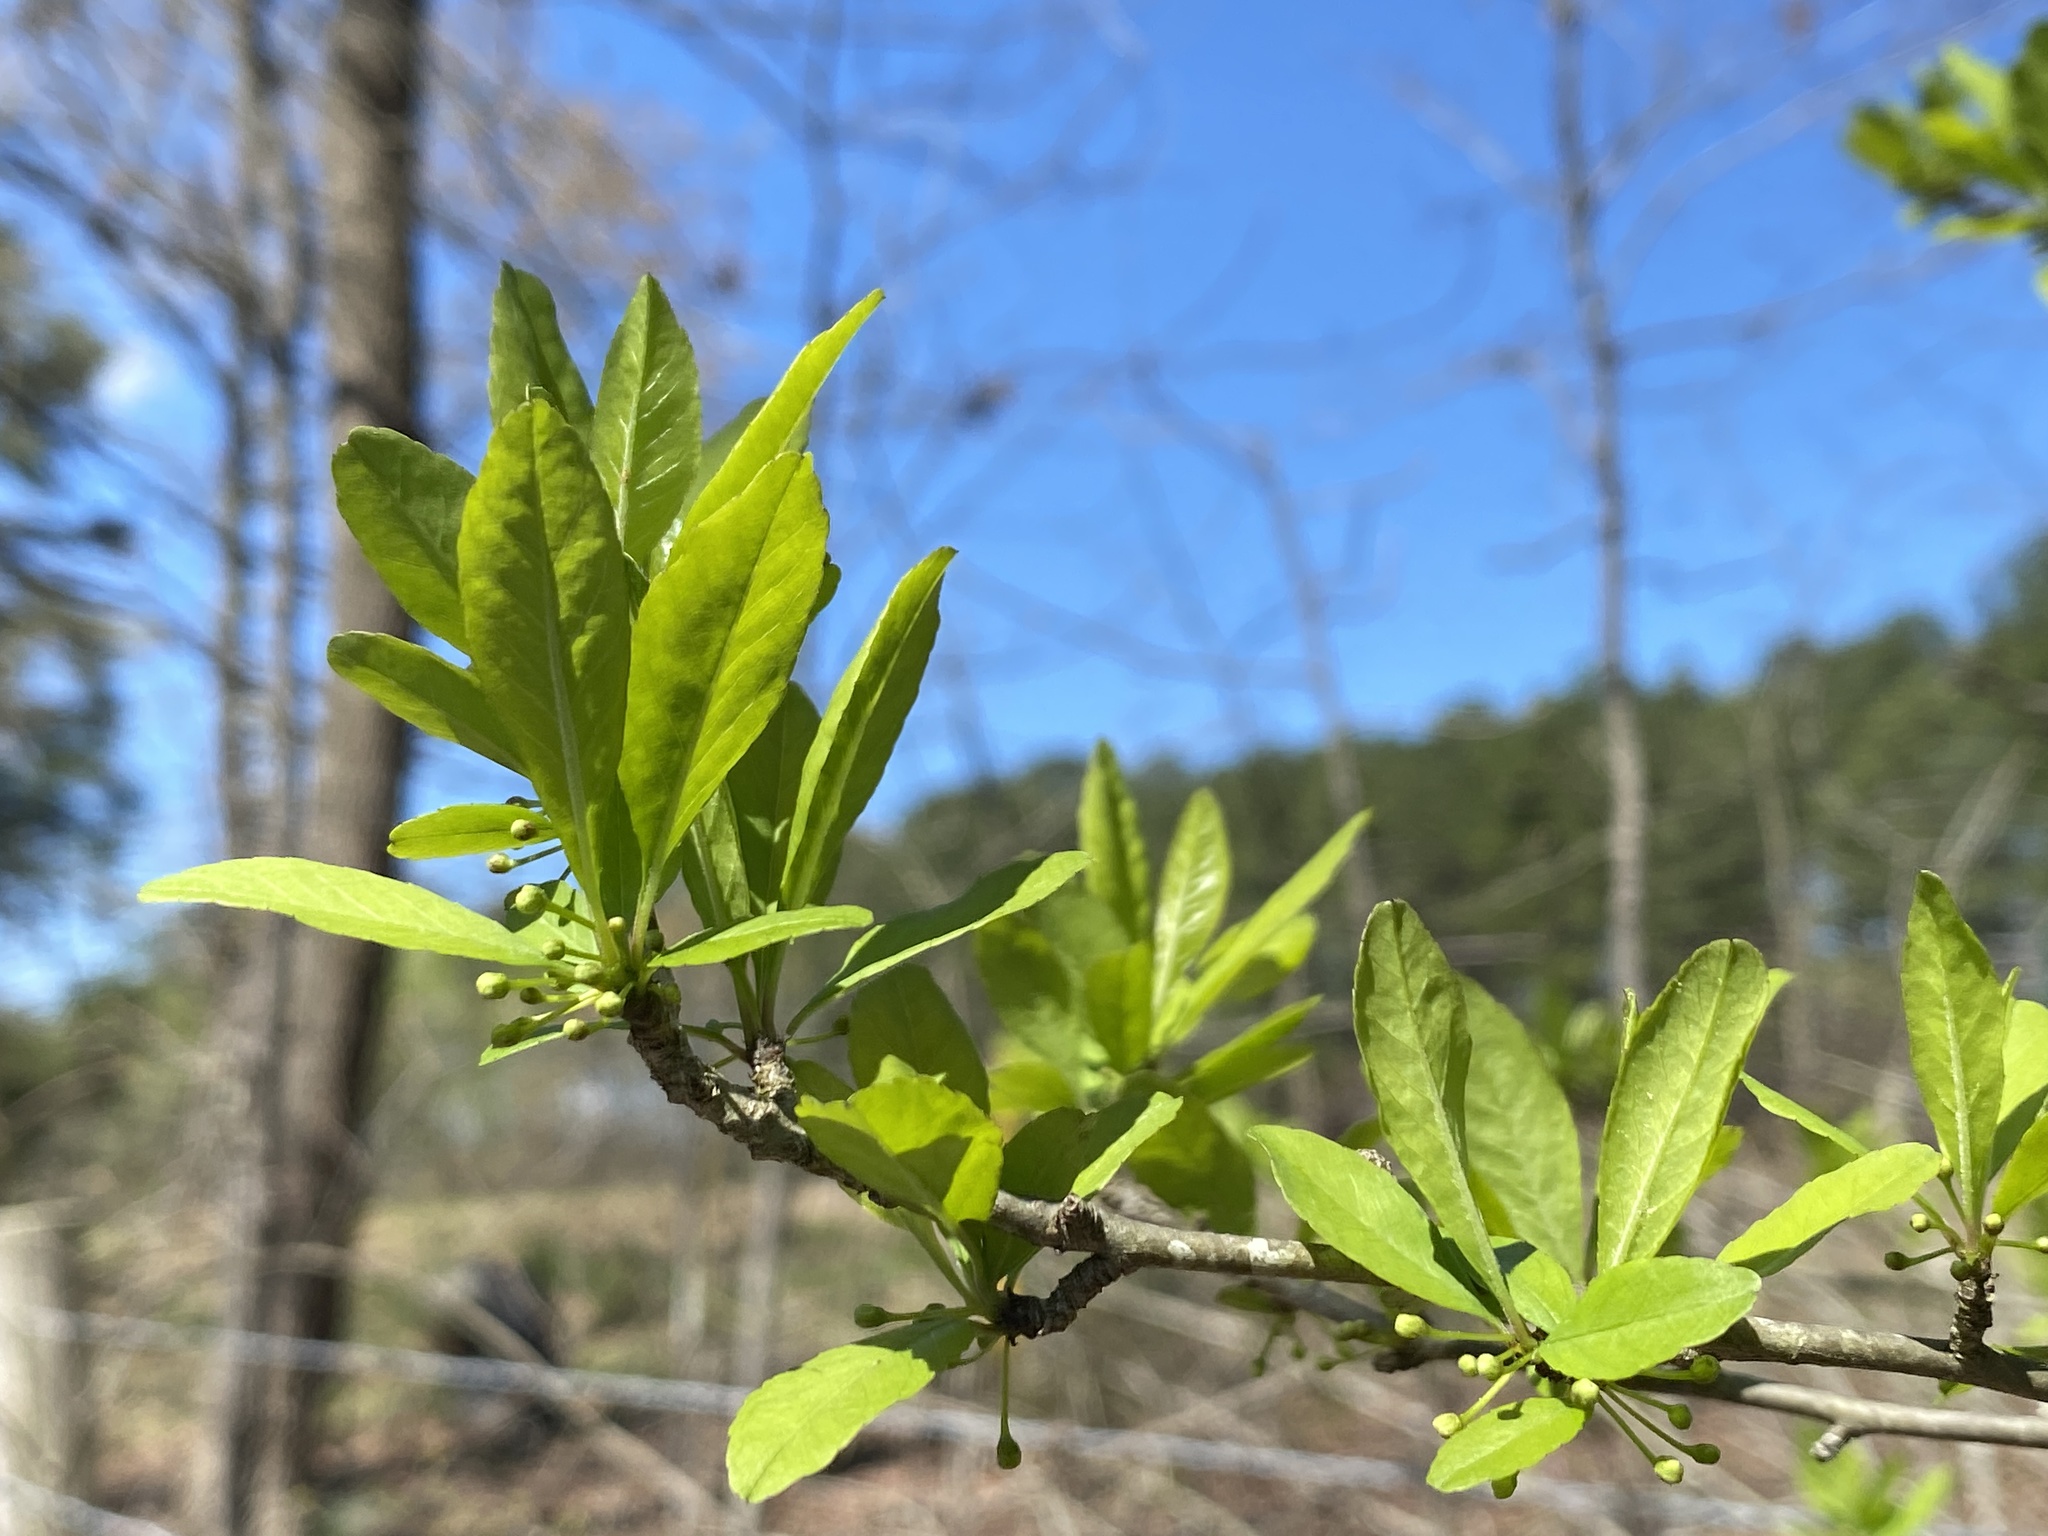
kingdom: Plantae
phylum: Tracheophyta
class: Magnoliopsida
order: Aquifoliales
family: Aquifoliaceae
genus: Ilex
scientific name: Ilex decidua
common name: Possum-haw
